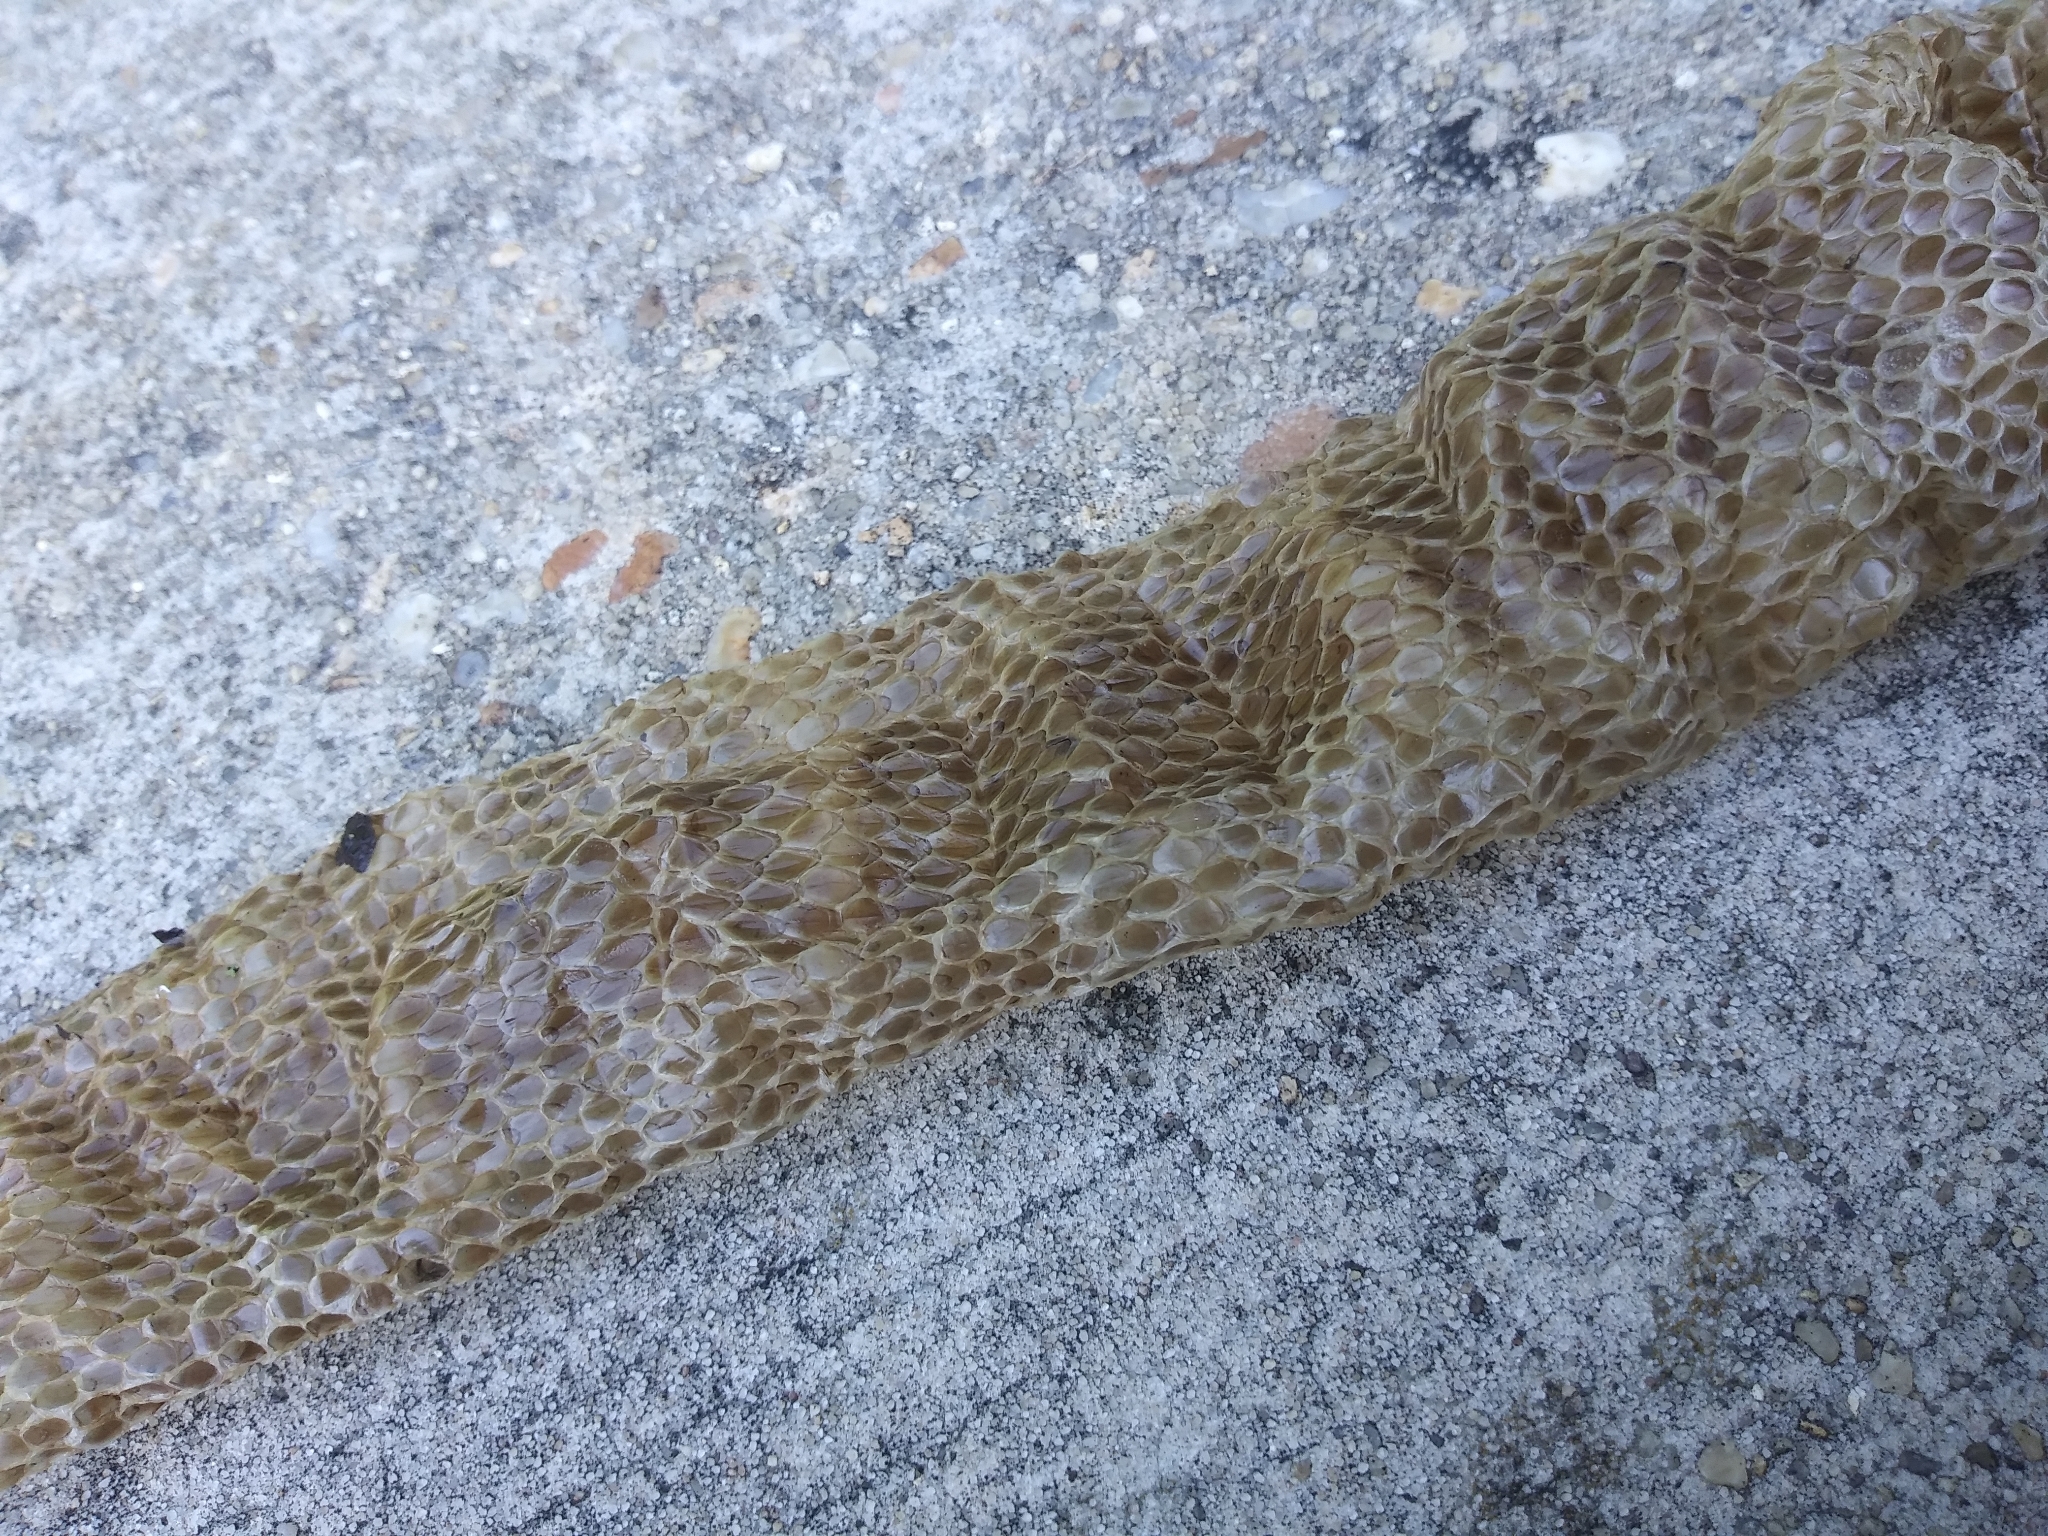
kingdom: Animalia
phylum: Chordata
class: Squamata
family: Colubridae
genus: Nerodia
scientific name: Nerodia sipedon
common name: Northern water snake
